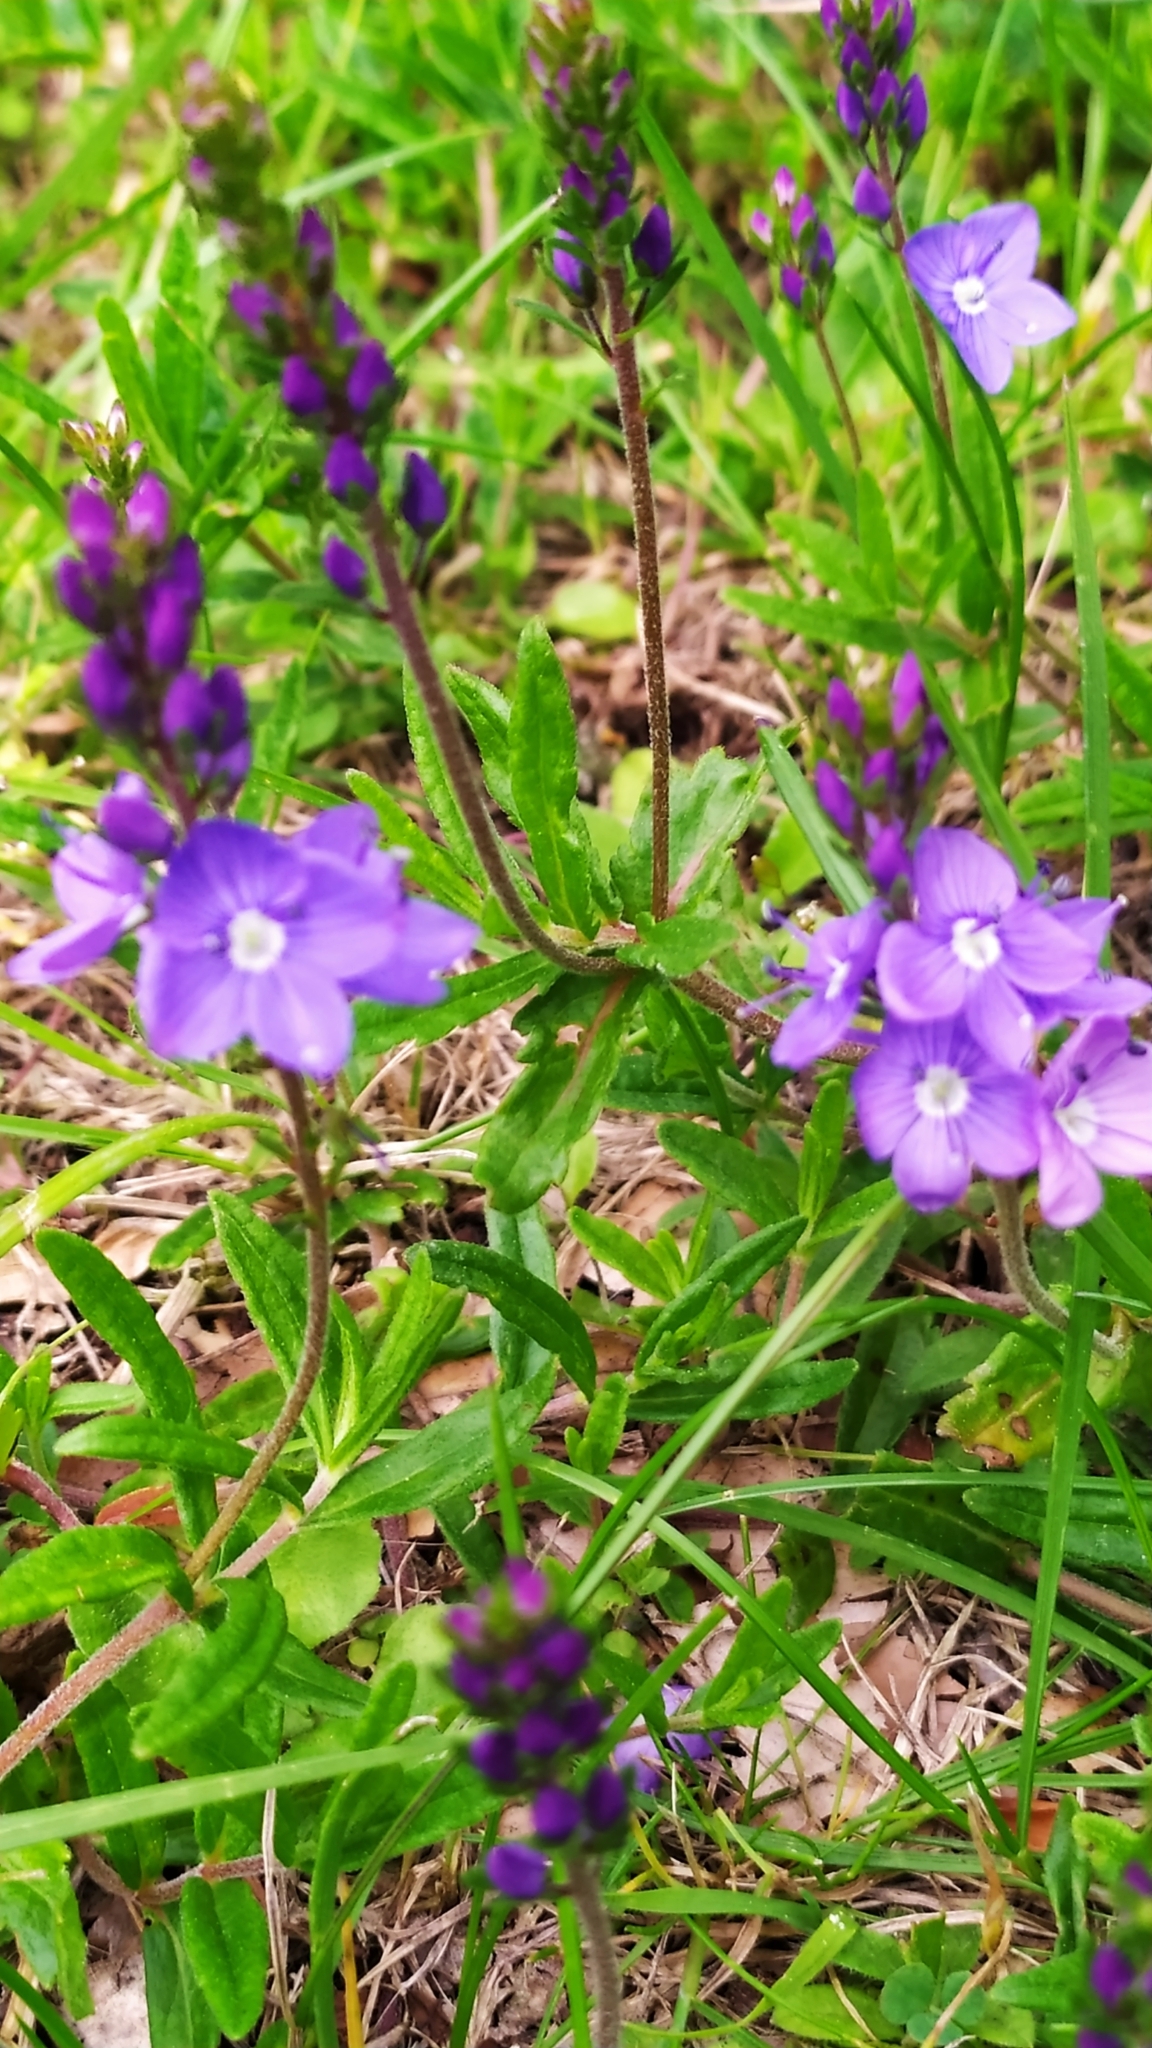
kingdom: Plantae
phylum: Tracheophyta
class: Magnoliopsida
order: Lamiales
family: Plantaginaceae
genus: Veronica
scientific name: Veronica satureiifolia
